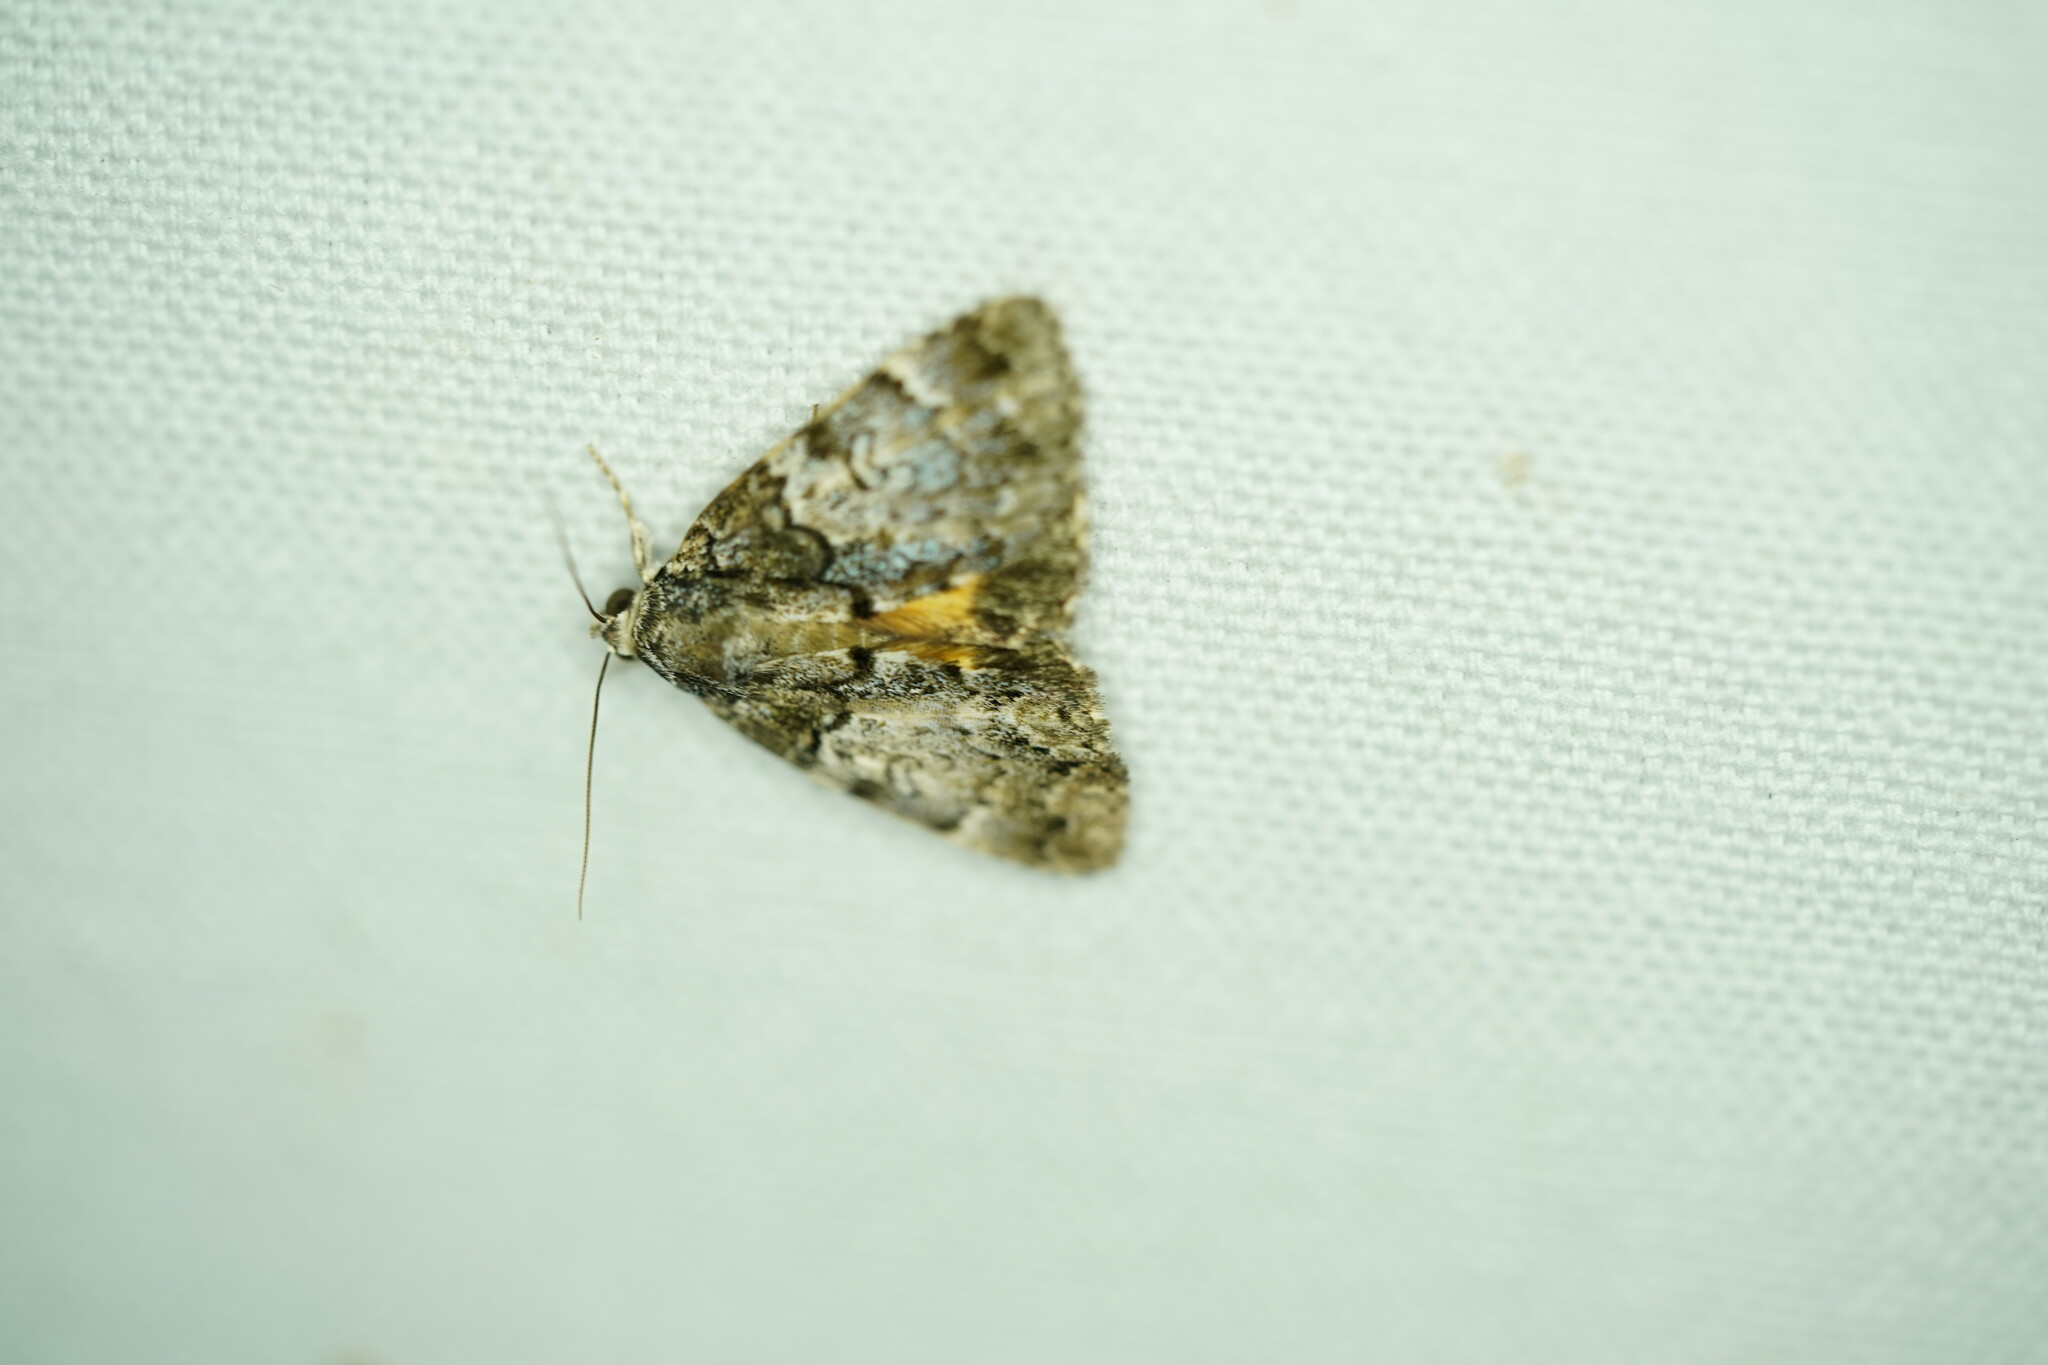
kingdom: Animalia
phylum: Arthropoda
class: Insecta
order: Lepidoptera
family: Erebidae
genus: Allotria
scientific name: Allotria elonympha
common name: False underwing
